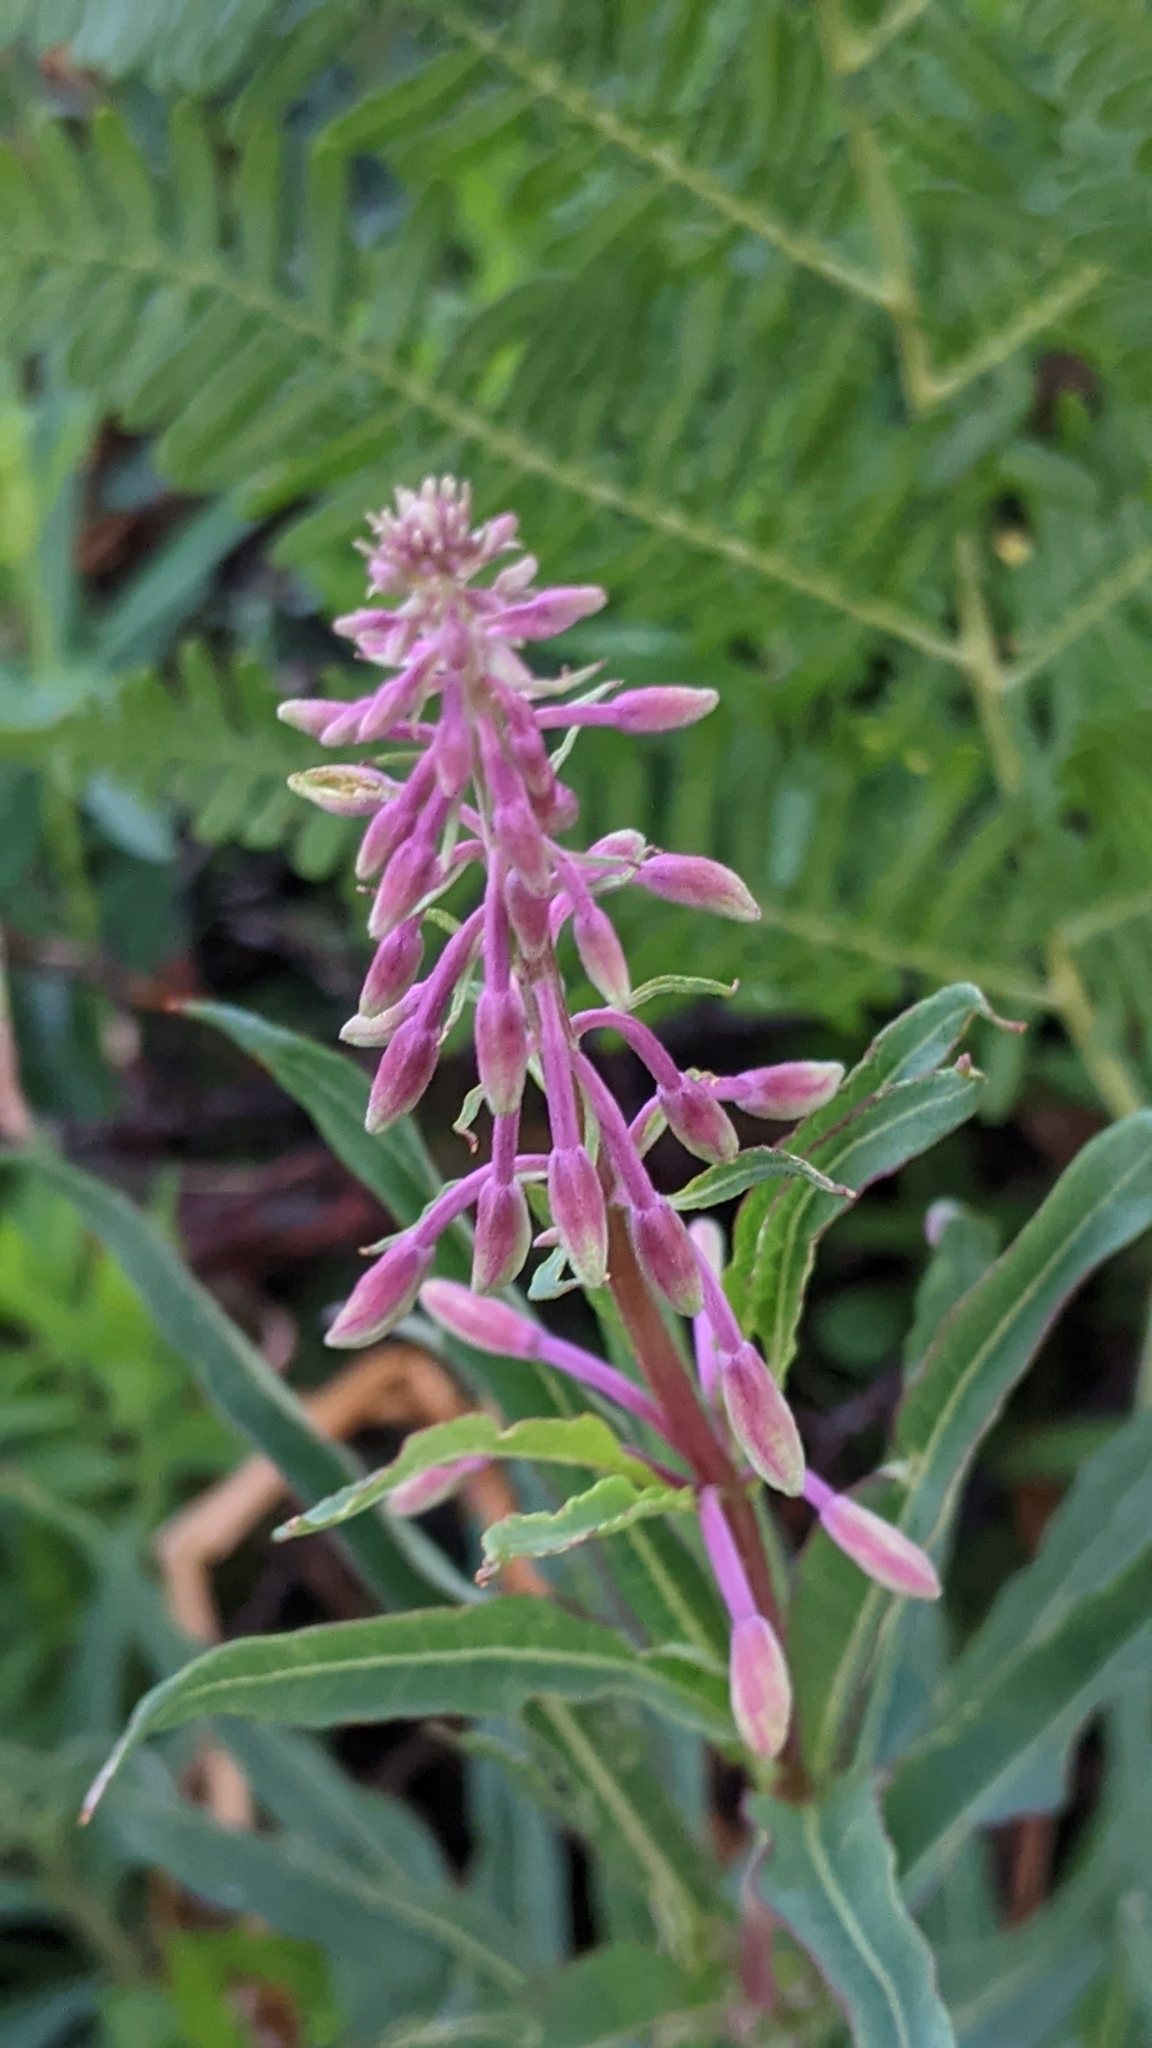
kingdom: Plantae
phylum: Tracheophyta
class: Magnoliopsida
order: Myrtales
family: Onagraceae
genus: Chamaenerion
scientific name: Chamaenerion angustifolium
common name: Fireweed
